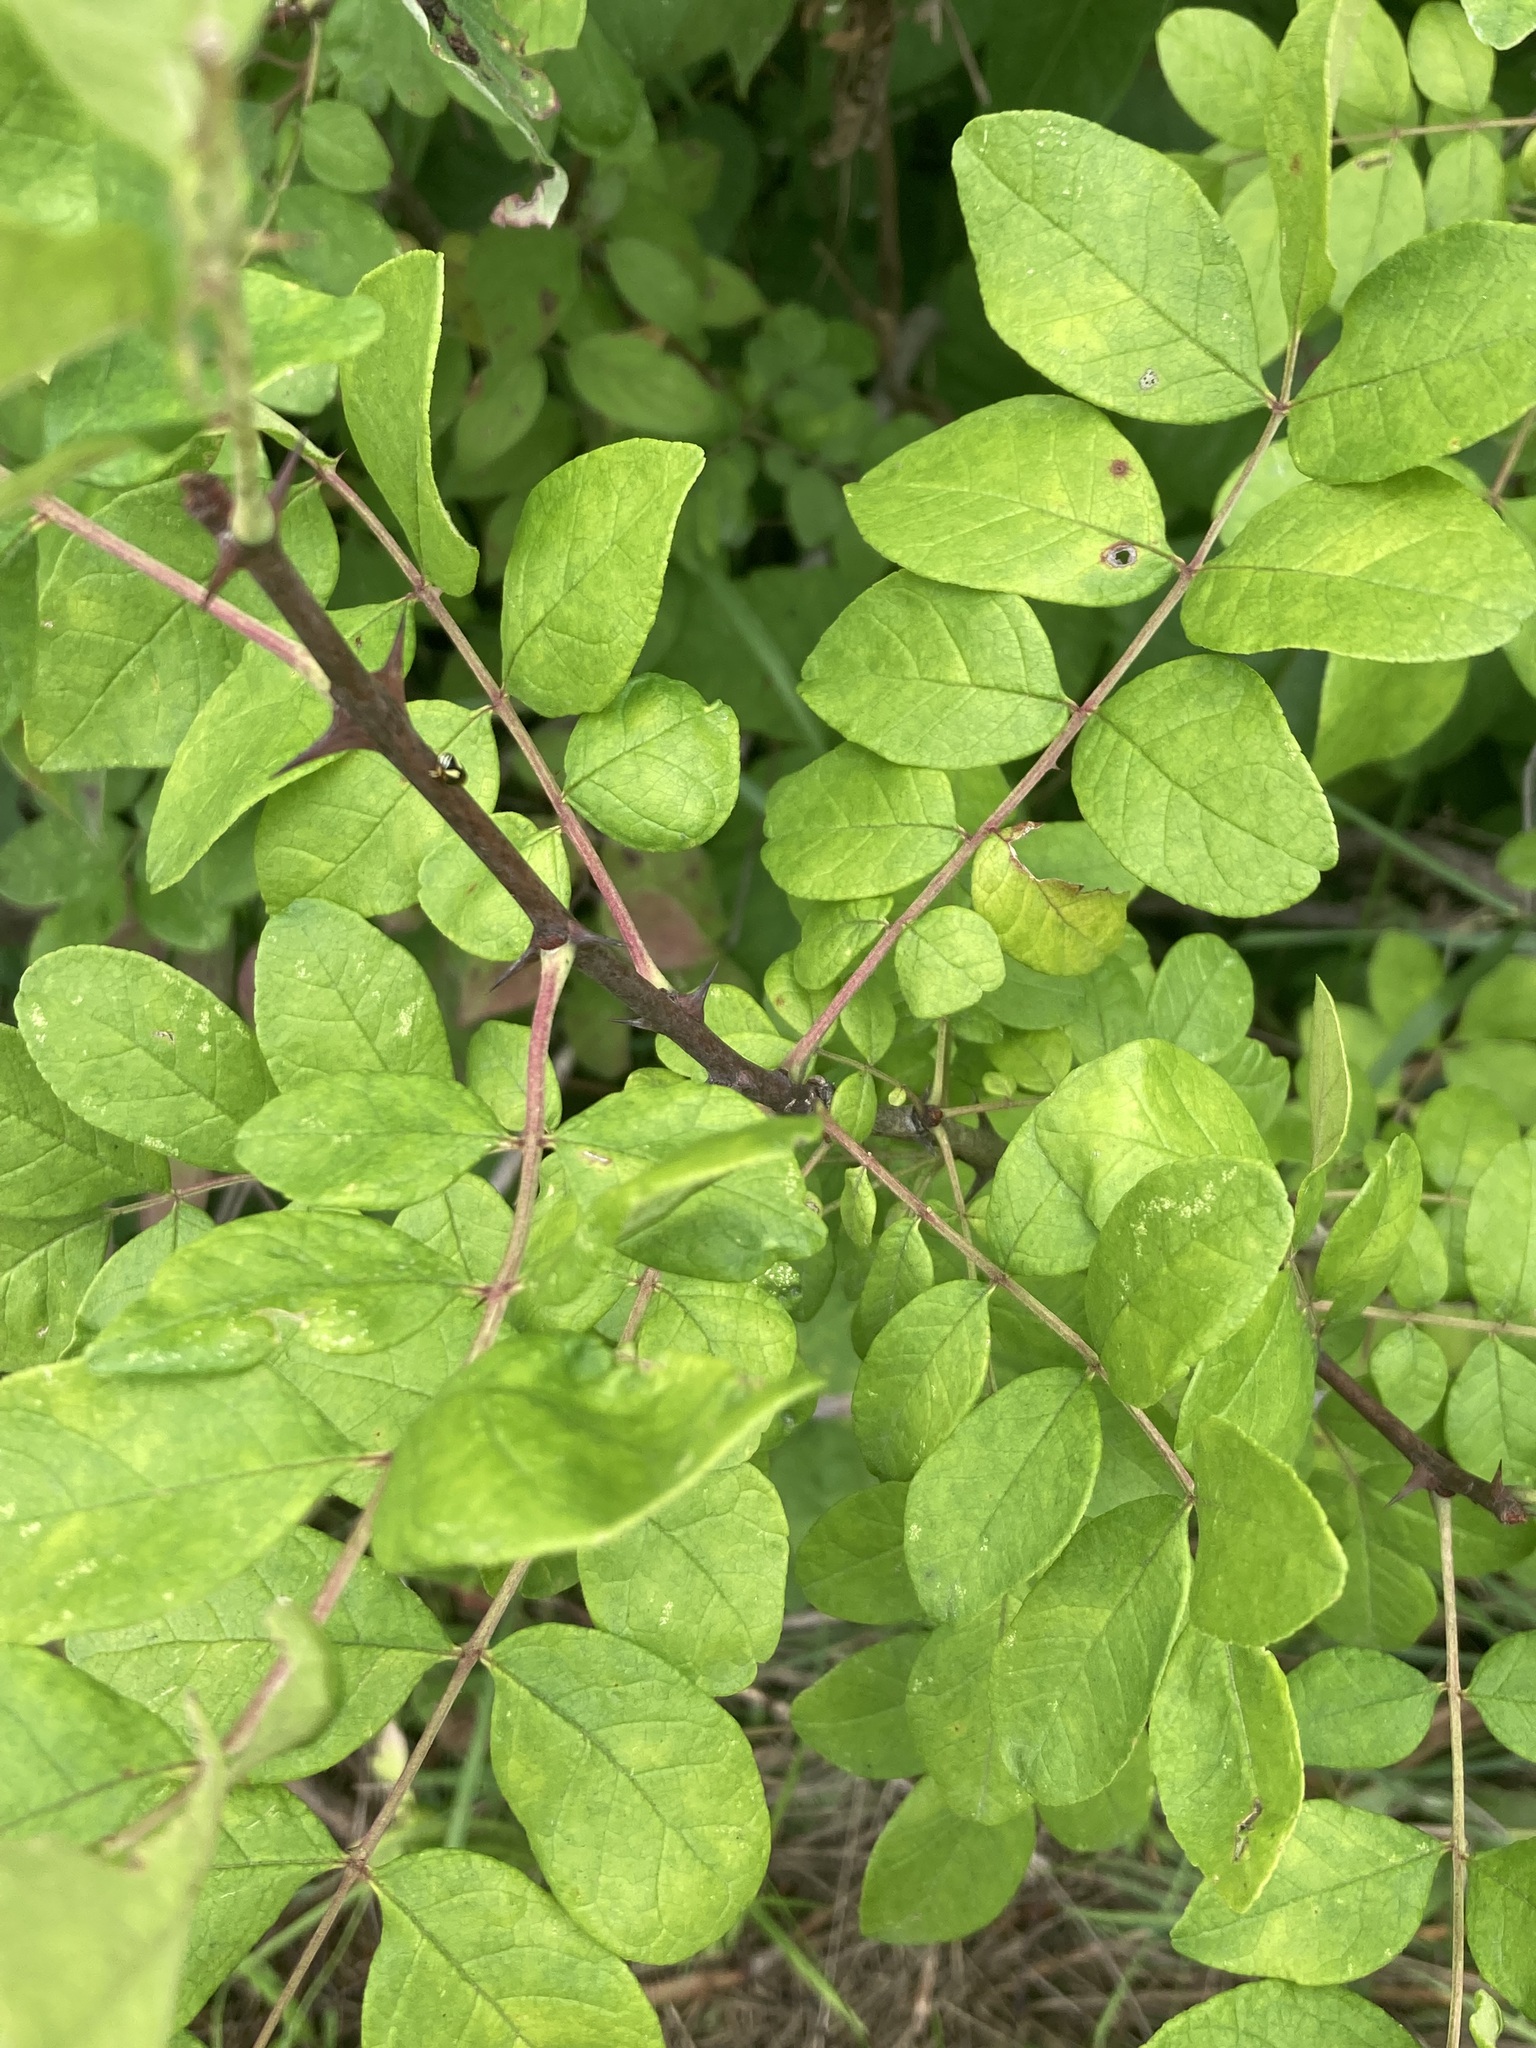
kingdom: Plantae
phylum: Tracheophyta
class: Magnoliopsida
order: Sapindales
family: Rutaceae
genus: Zanthoxylum
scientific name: Zanthoxylum americanum
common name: Northern prickly-ash
